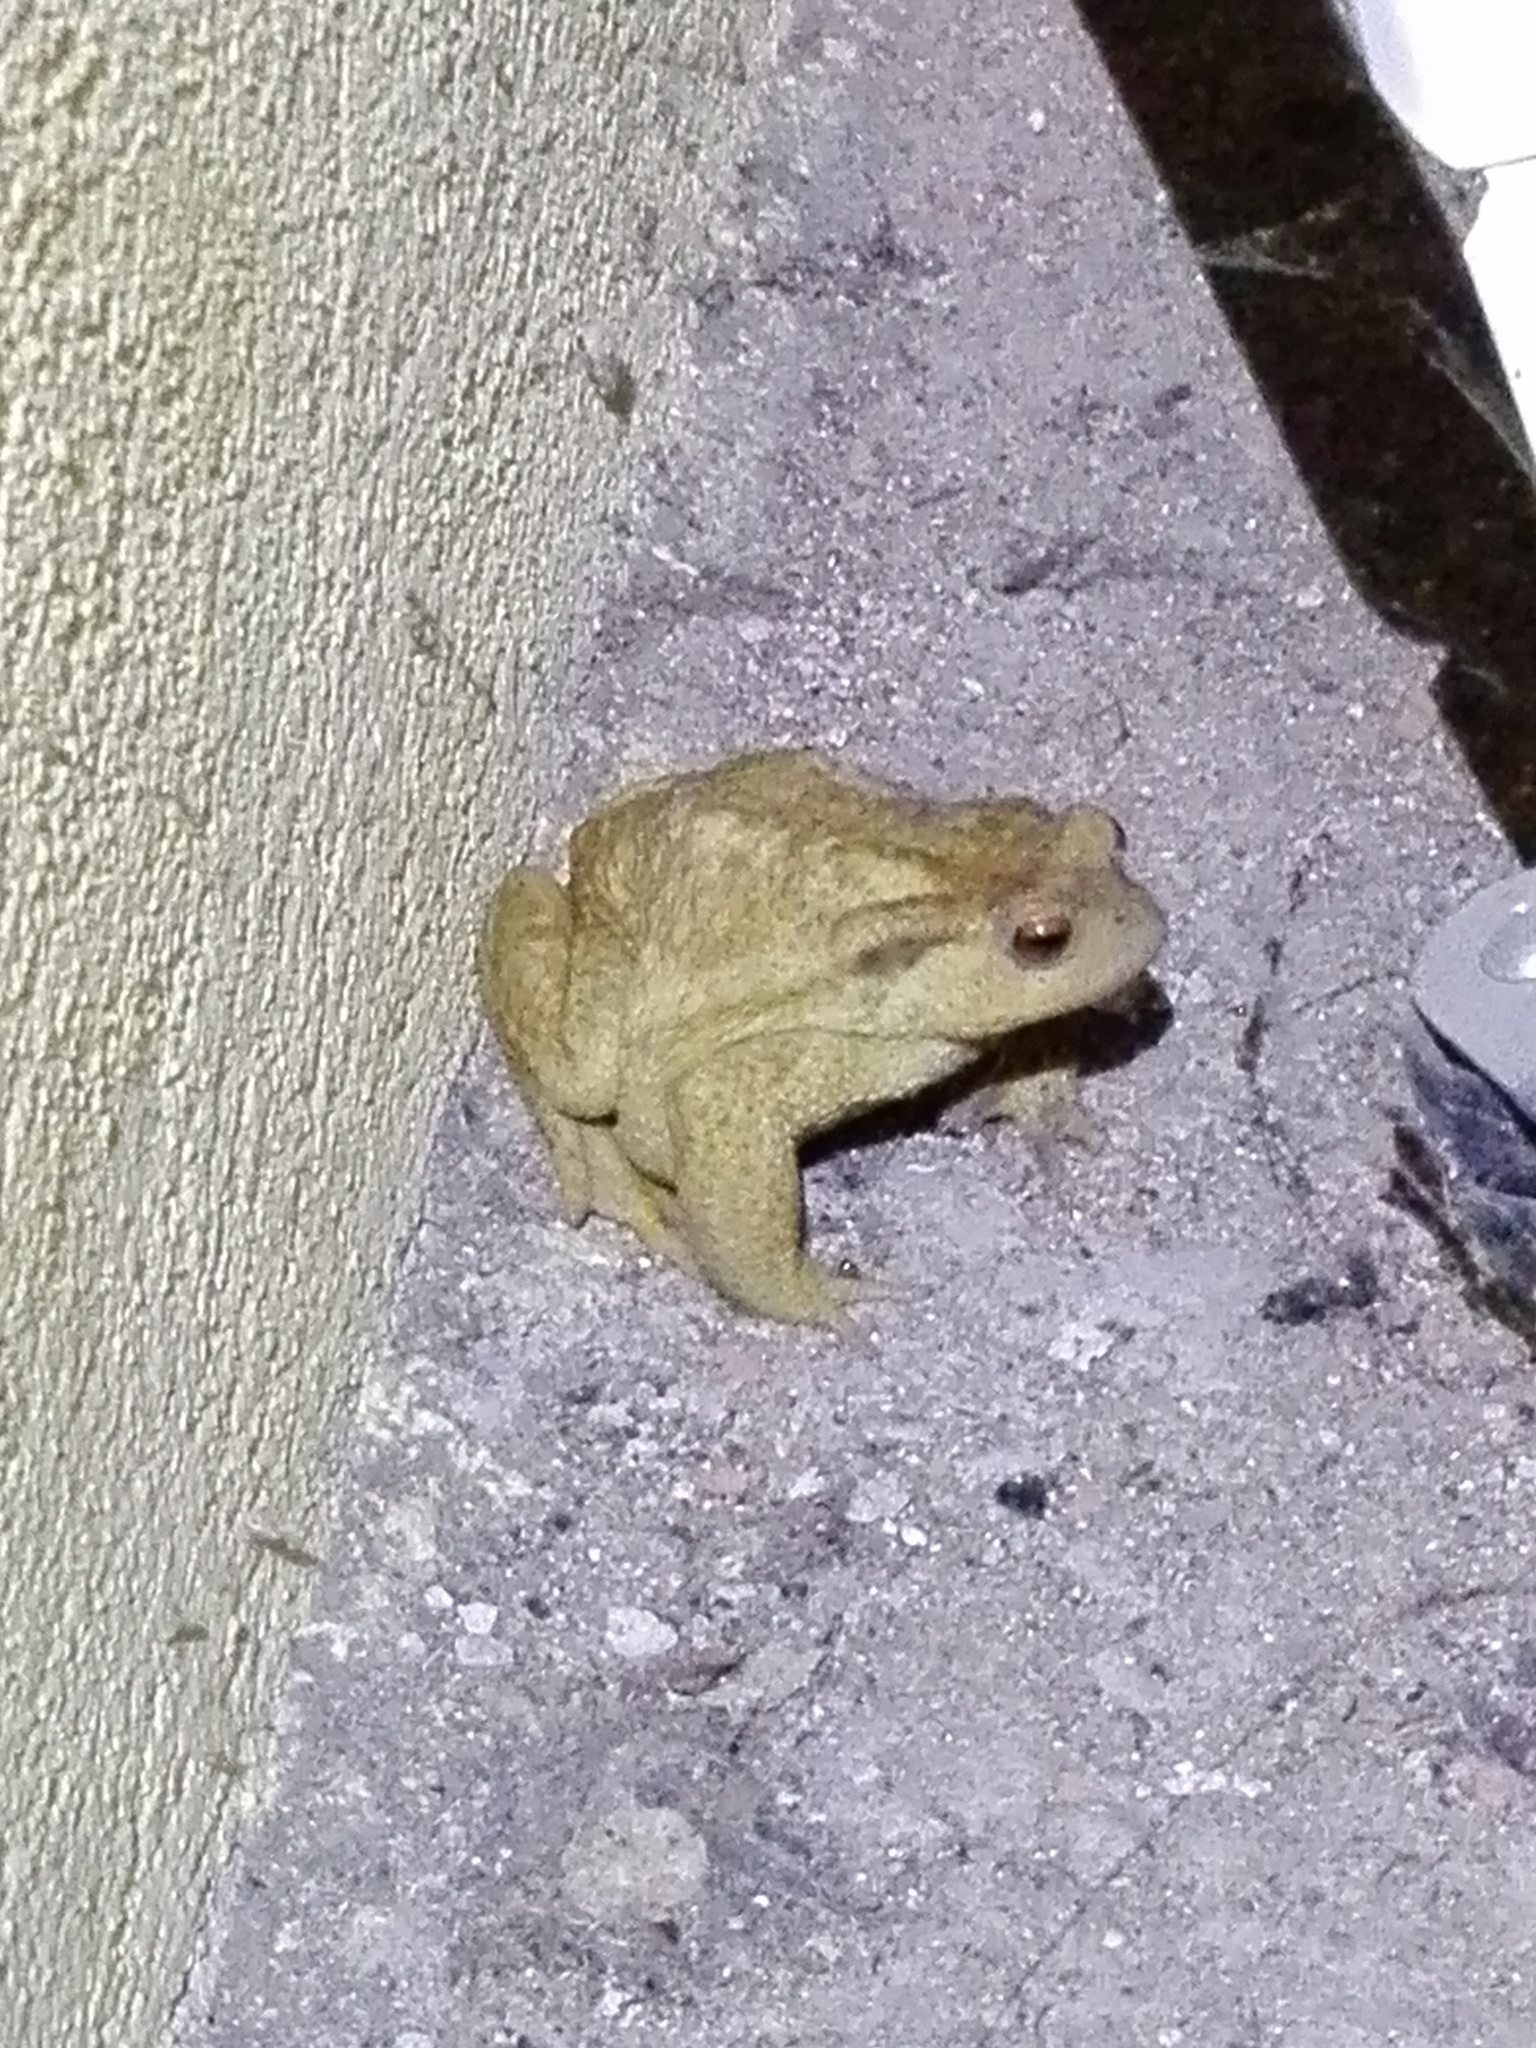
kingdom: Animalia
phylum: Chordata
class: Amphibia
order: Anura
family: Bufonidae
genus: Bufo
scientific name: Bufo spinosus
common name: Western common toad
